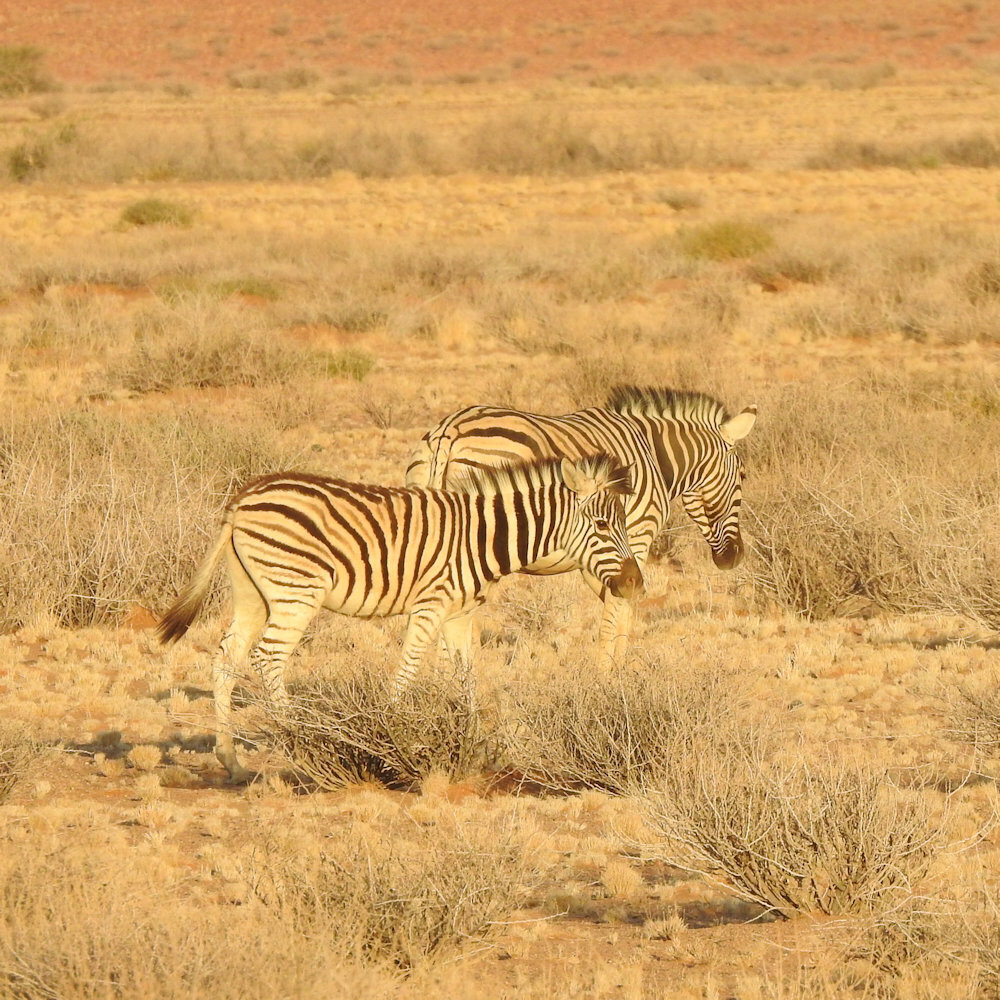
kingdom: Animalia
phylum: Chordata
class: Mammalia
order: Perissodactyla
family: Equidae
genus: Equus
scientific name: Equus quagga
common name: Plains zebra
